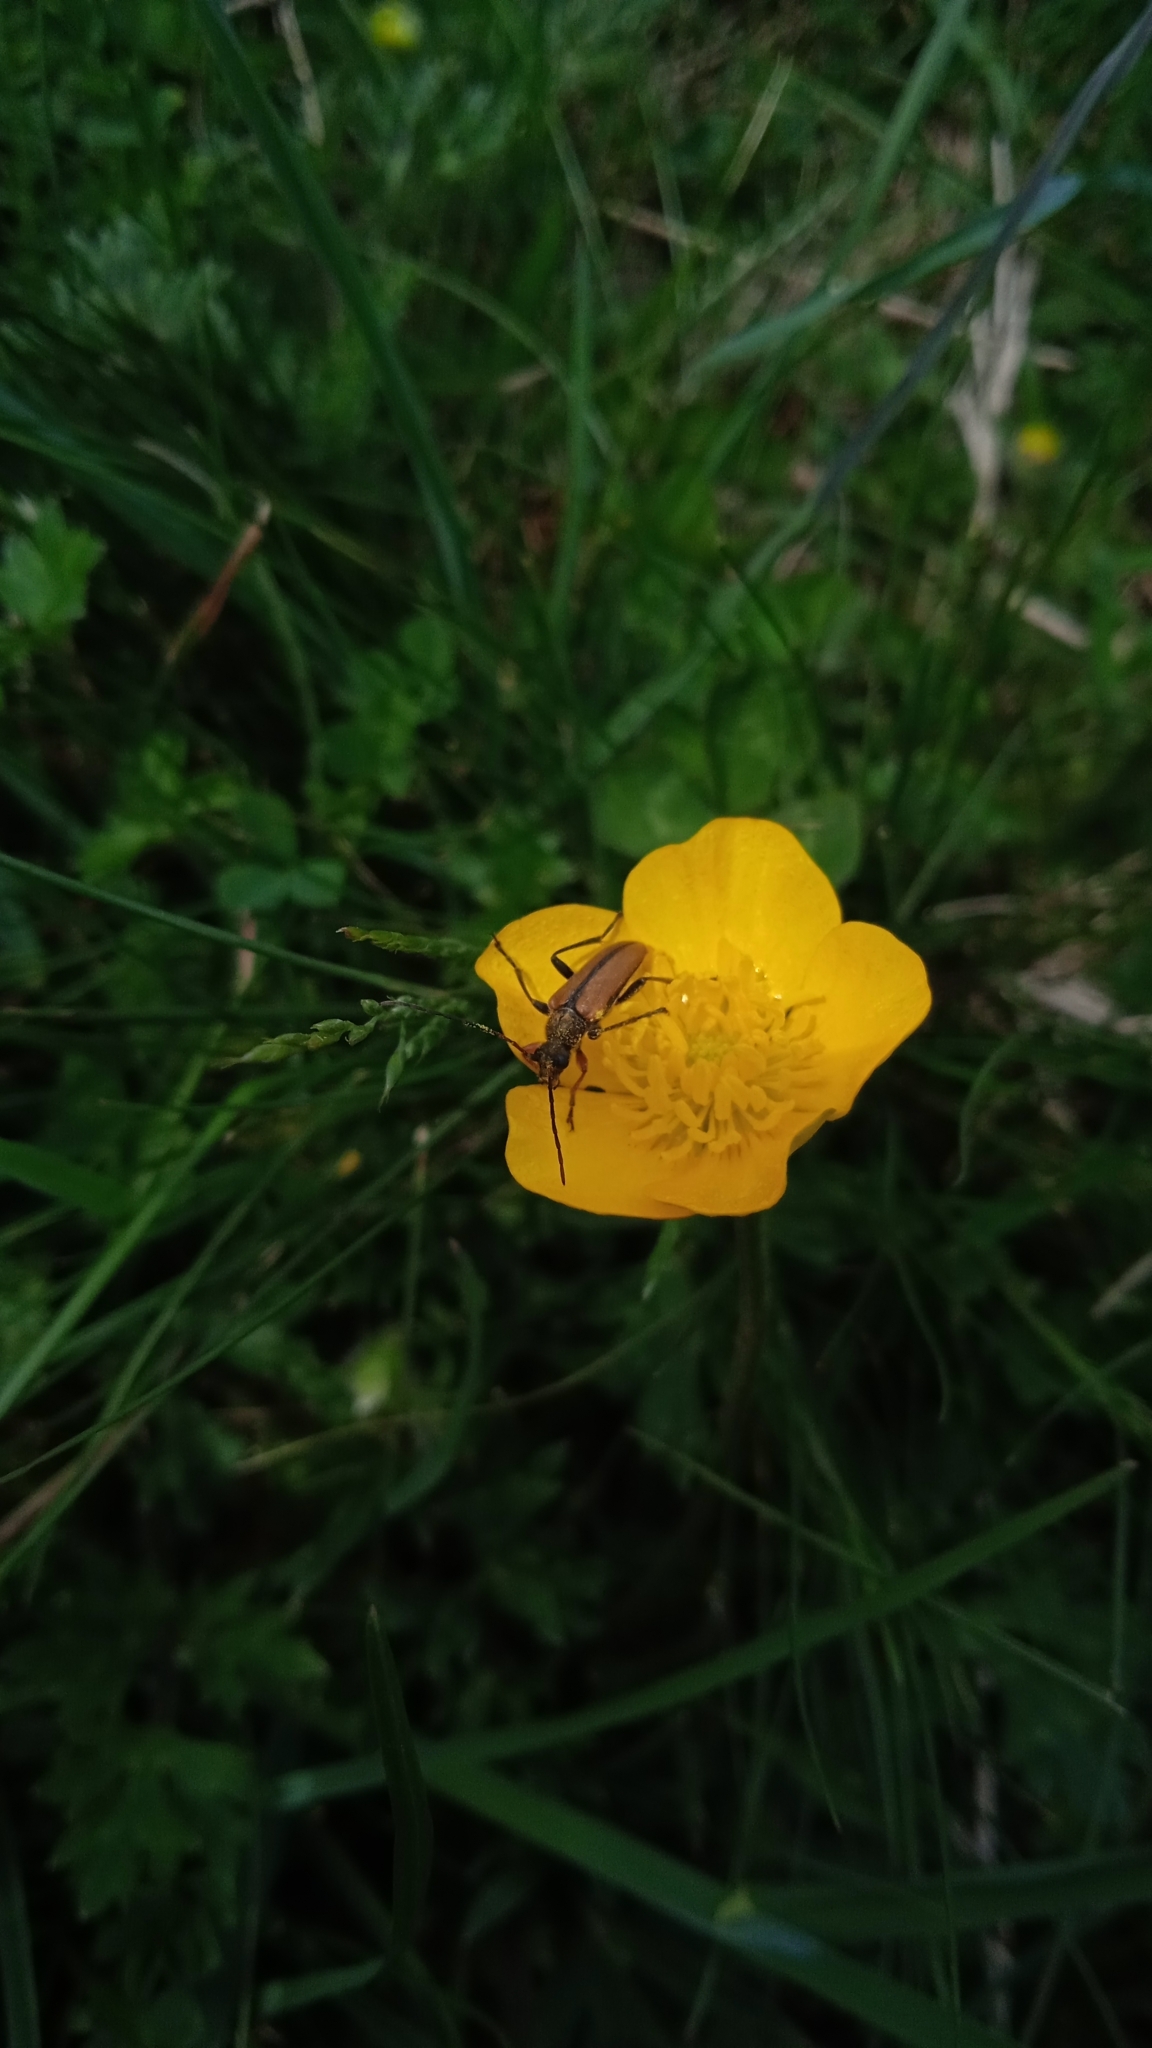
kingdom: Animalia
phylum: Arthropoda
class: Insecta
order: Coleoptera
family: Cerambycidae
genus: Cortodera
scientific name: Cortodera flavimana
